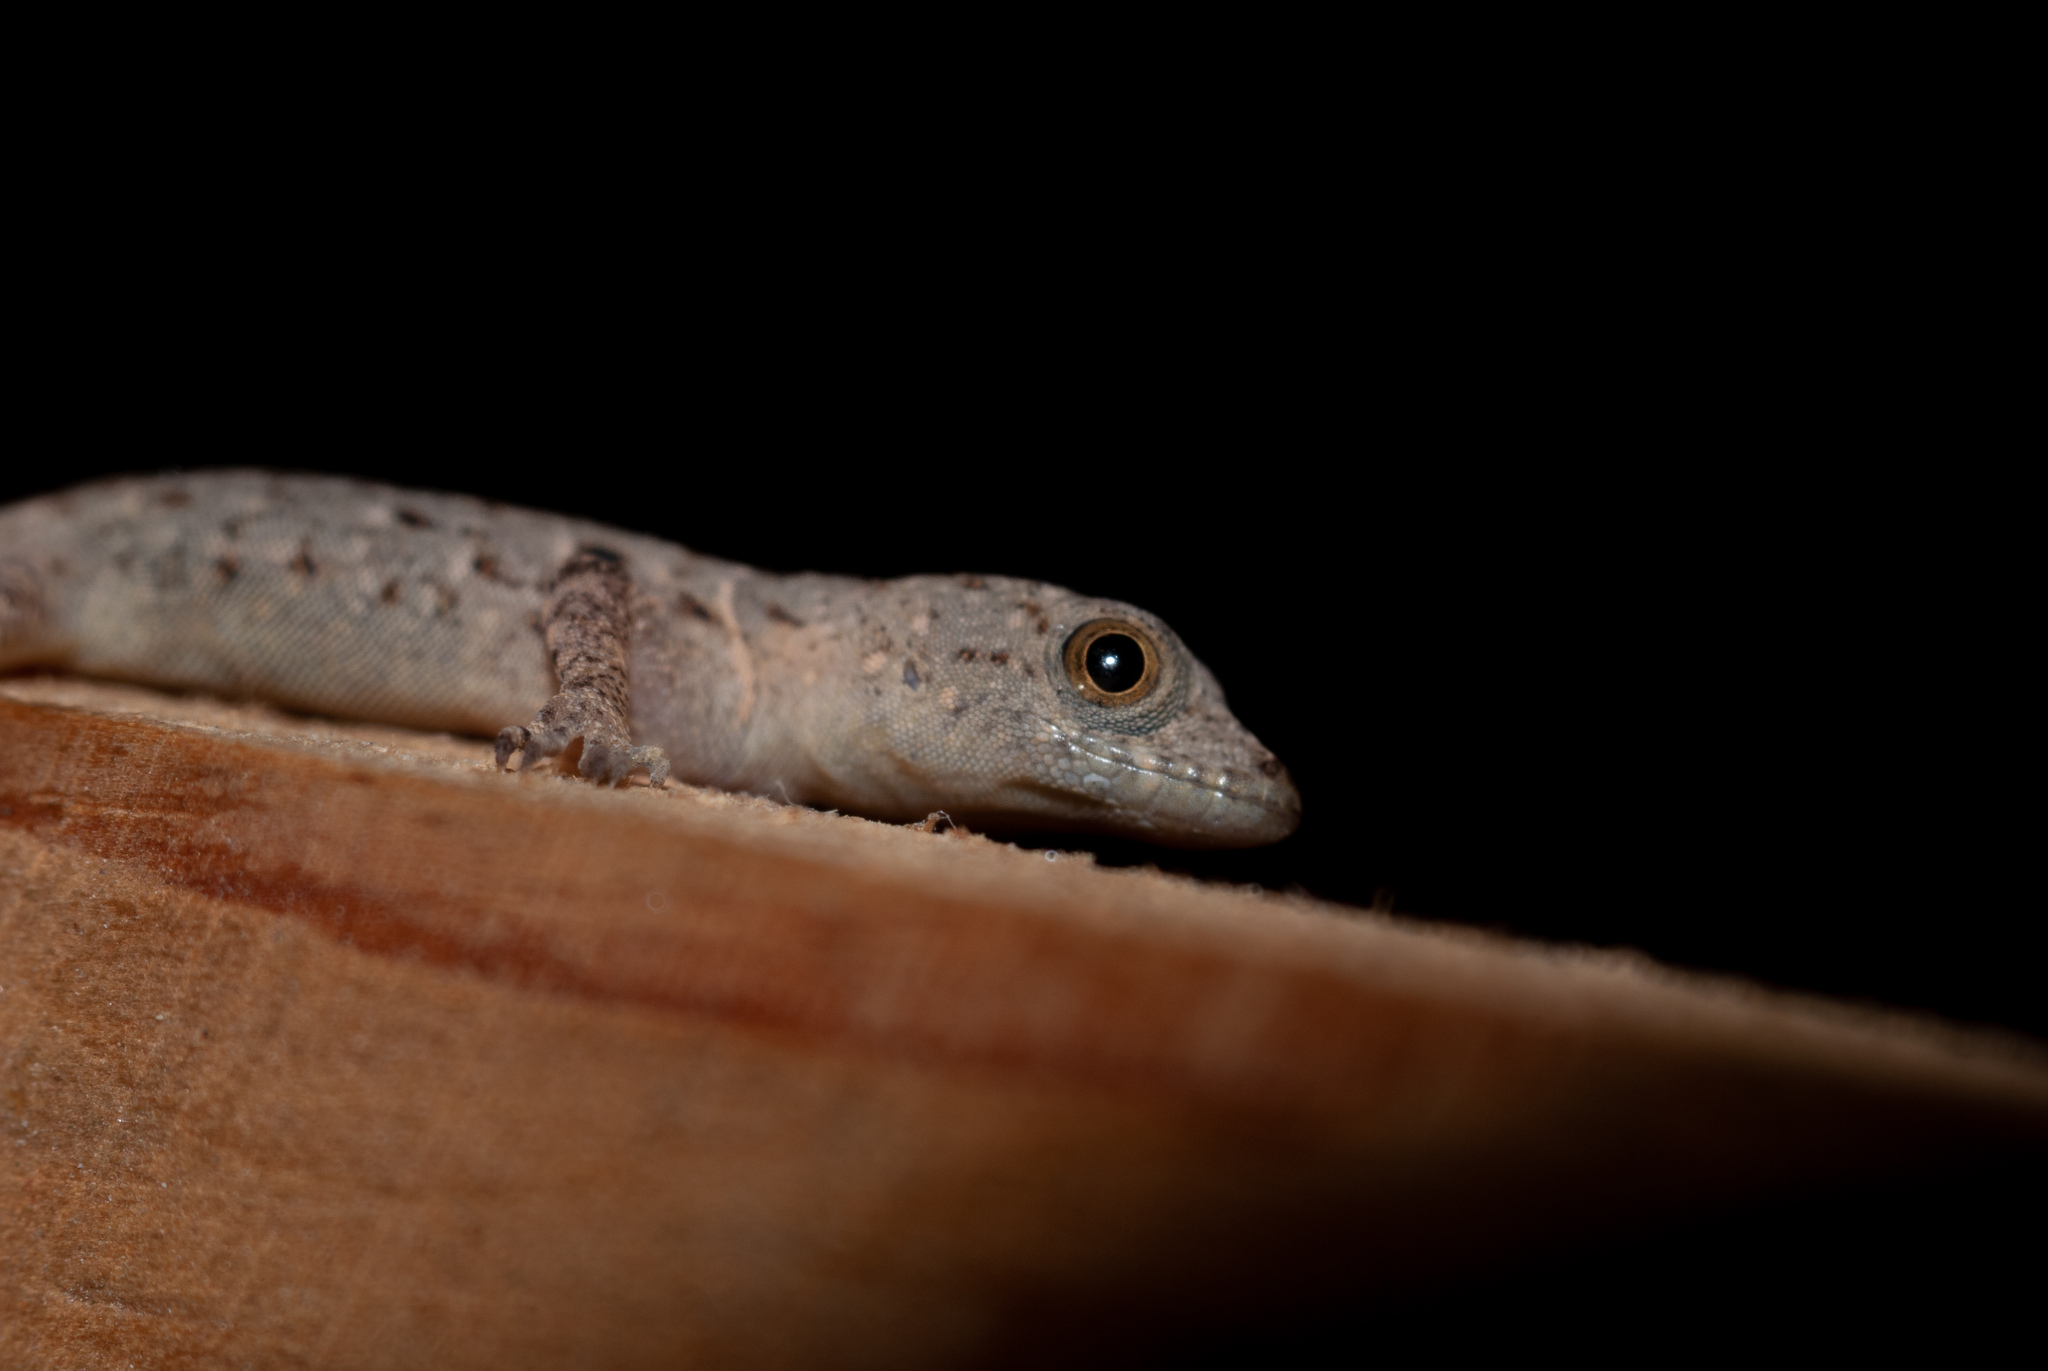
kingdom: Animalia
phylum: Chordata
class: Squamata
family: Sphaerodactylidae
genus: Gonatodes
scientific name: Gonatodes albogularis
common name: Yellow-headed gecko
